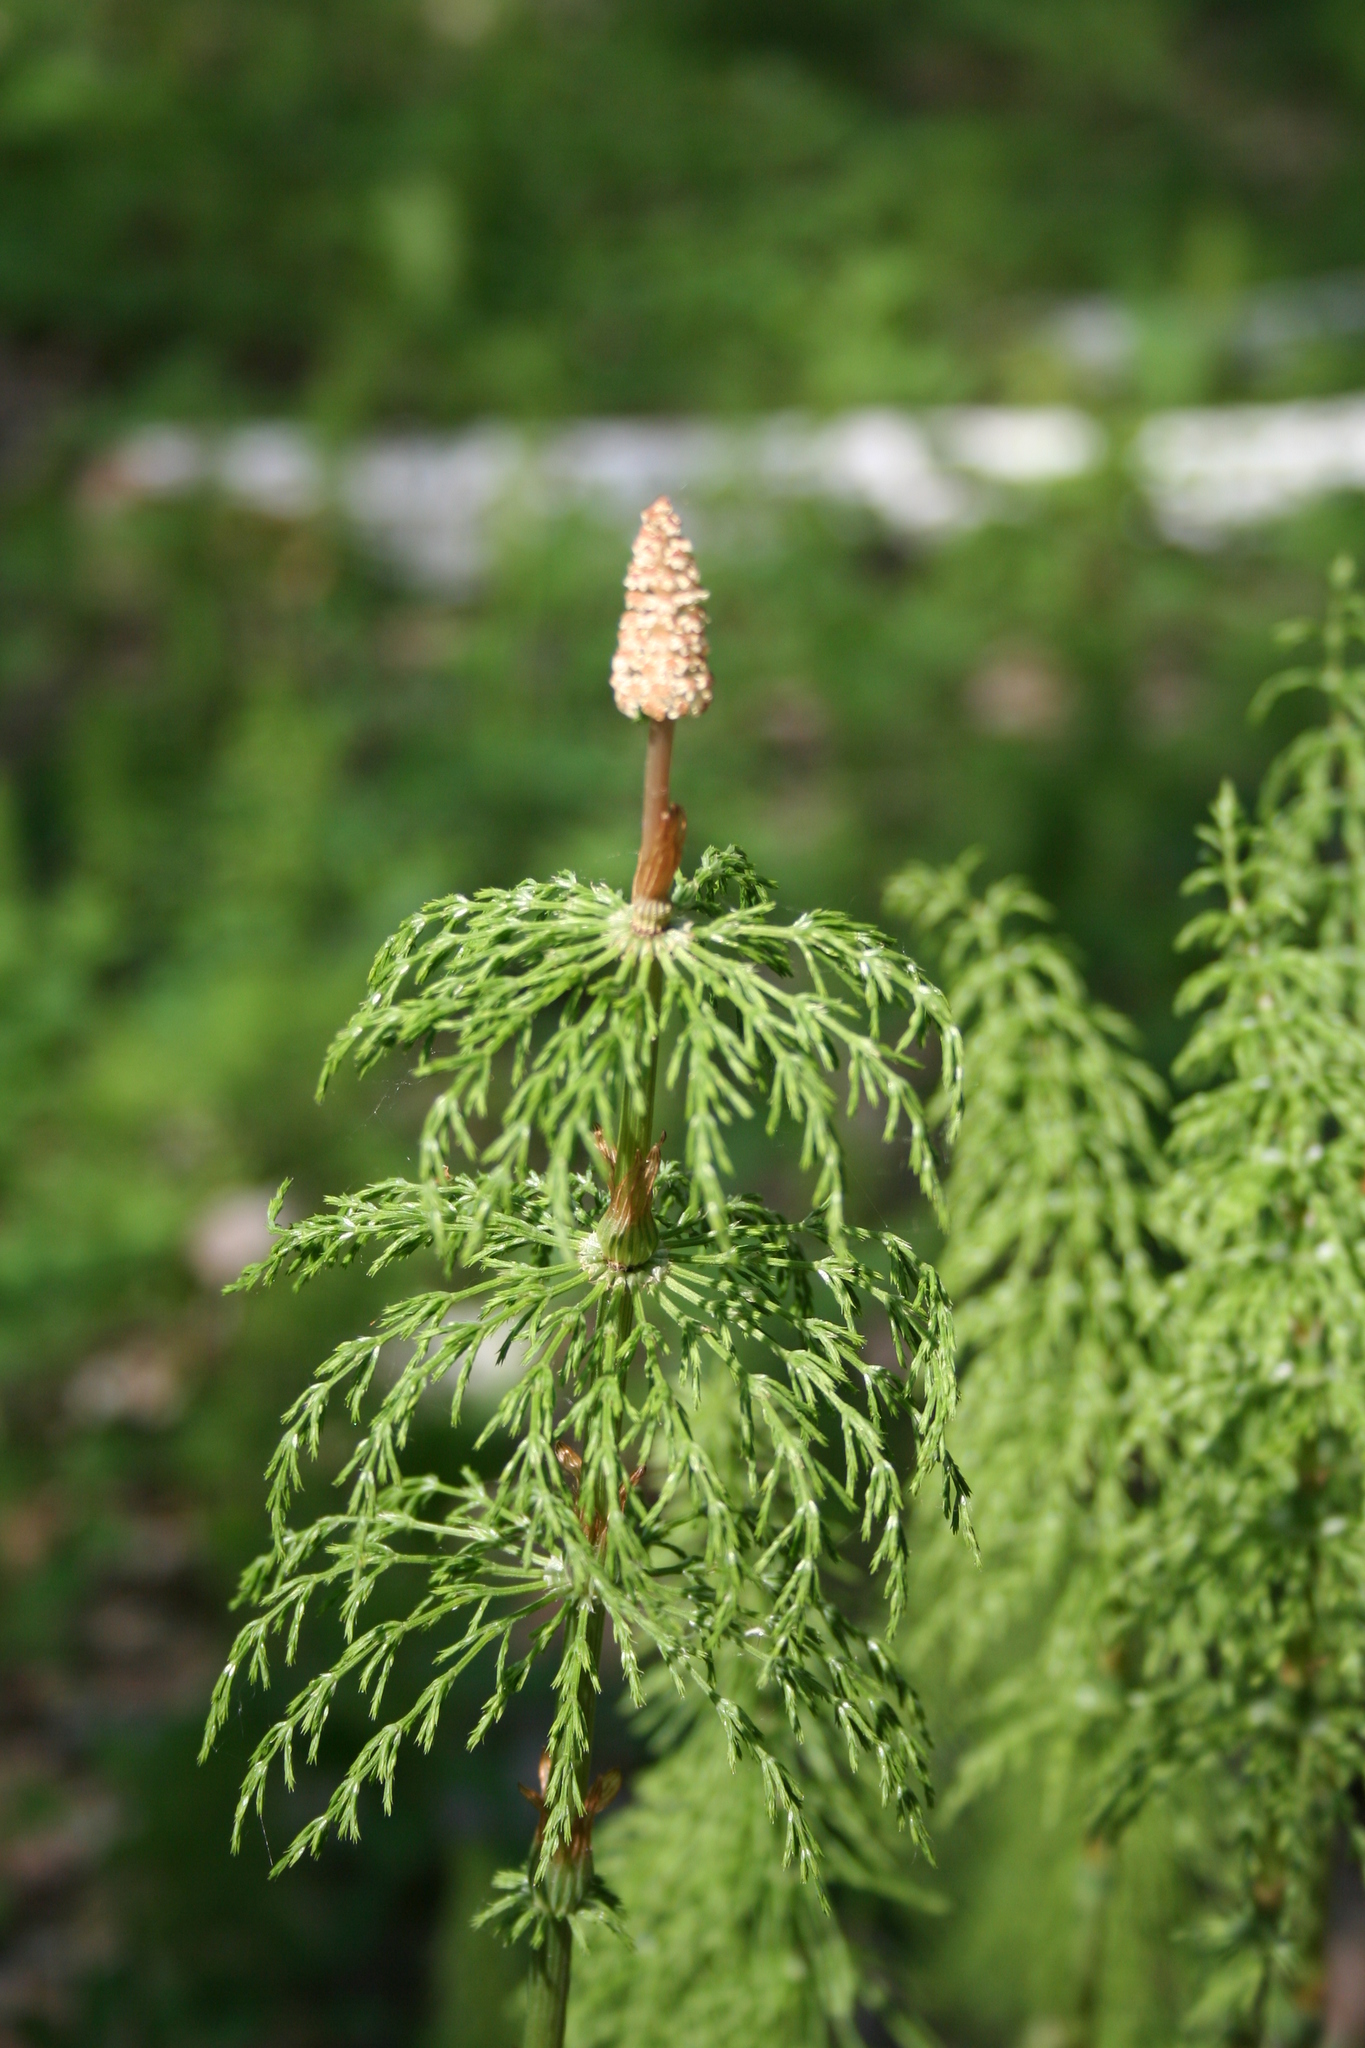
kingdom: Plantae
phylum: Tracheophyta
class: Polypodiopsida
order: Equisetales
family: Equisetaceae
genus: Equisetum
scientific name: Equisetum sylvaticum
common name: Wood horsetail
